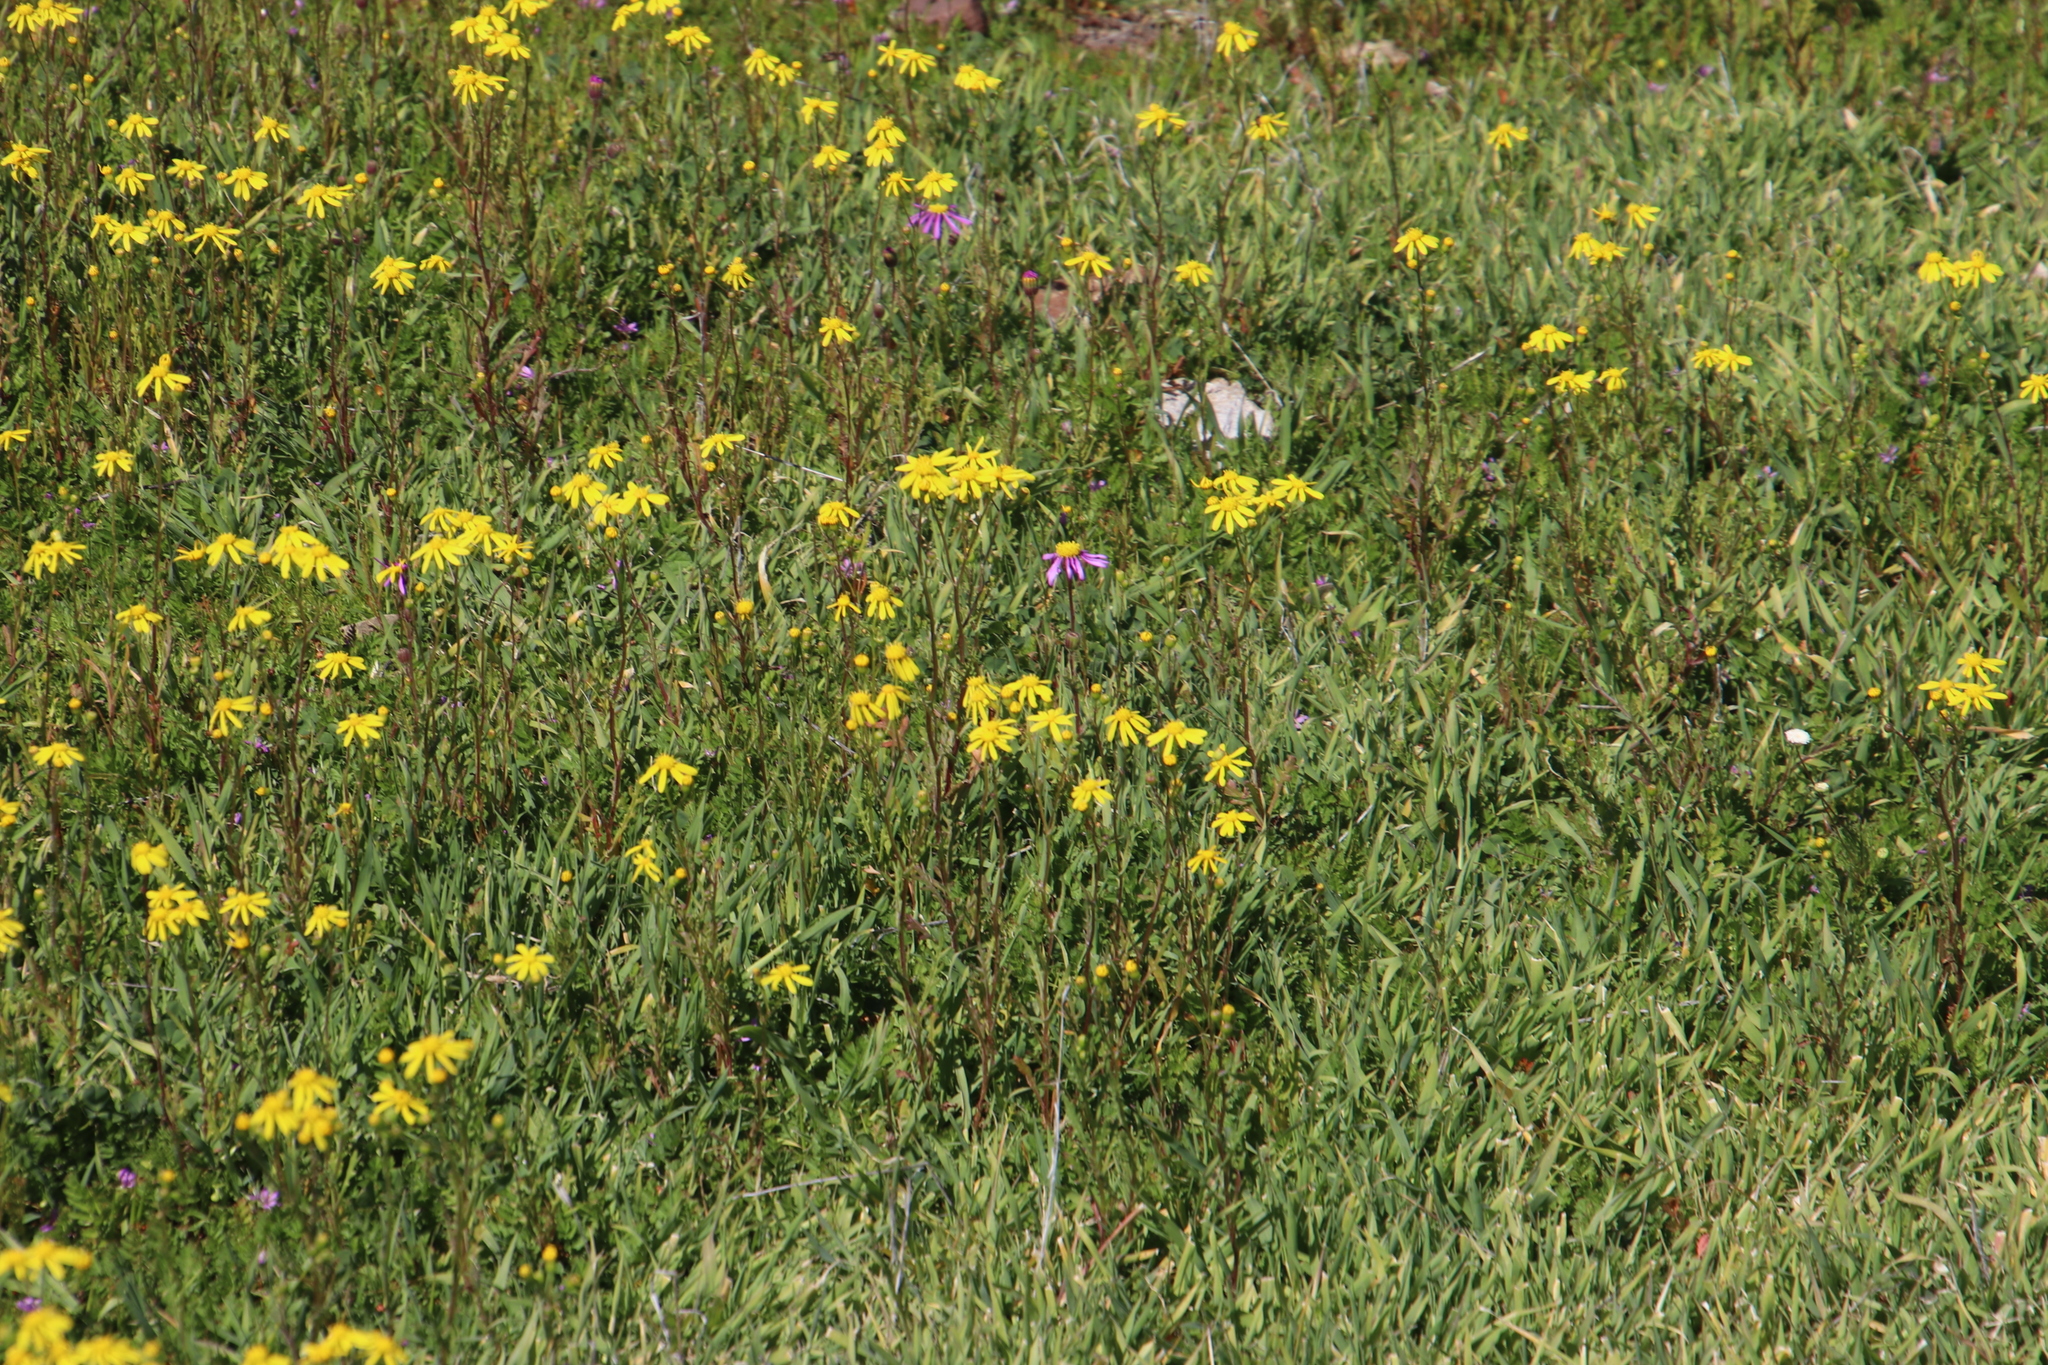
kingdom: Plantae
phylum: Tracheophyta
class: Magnoliopsida
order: Asterales
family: Asteraceae
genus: Senecio
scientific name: Senecio abruptus
